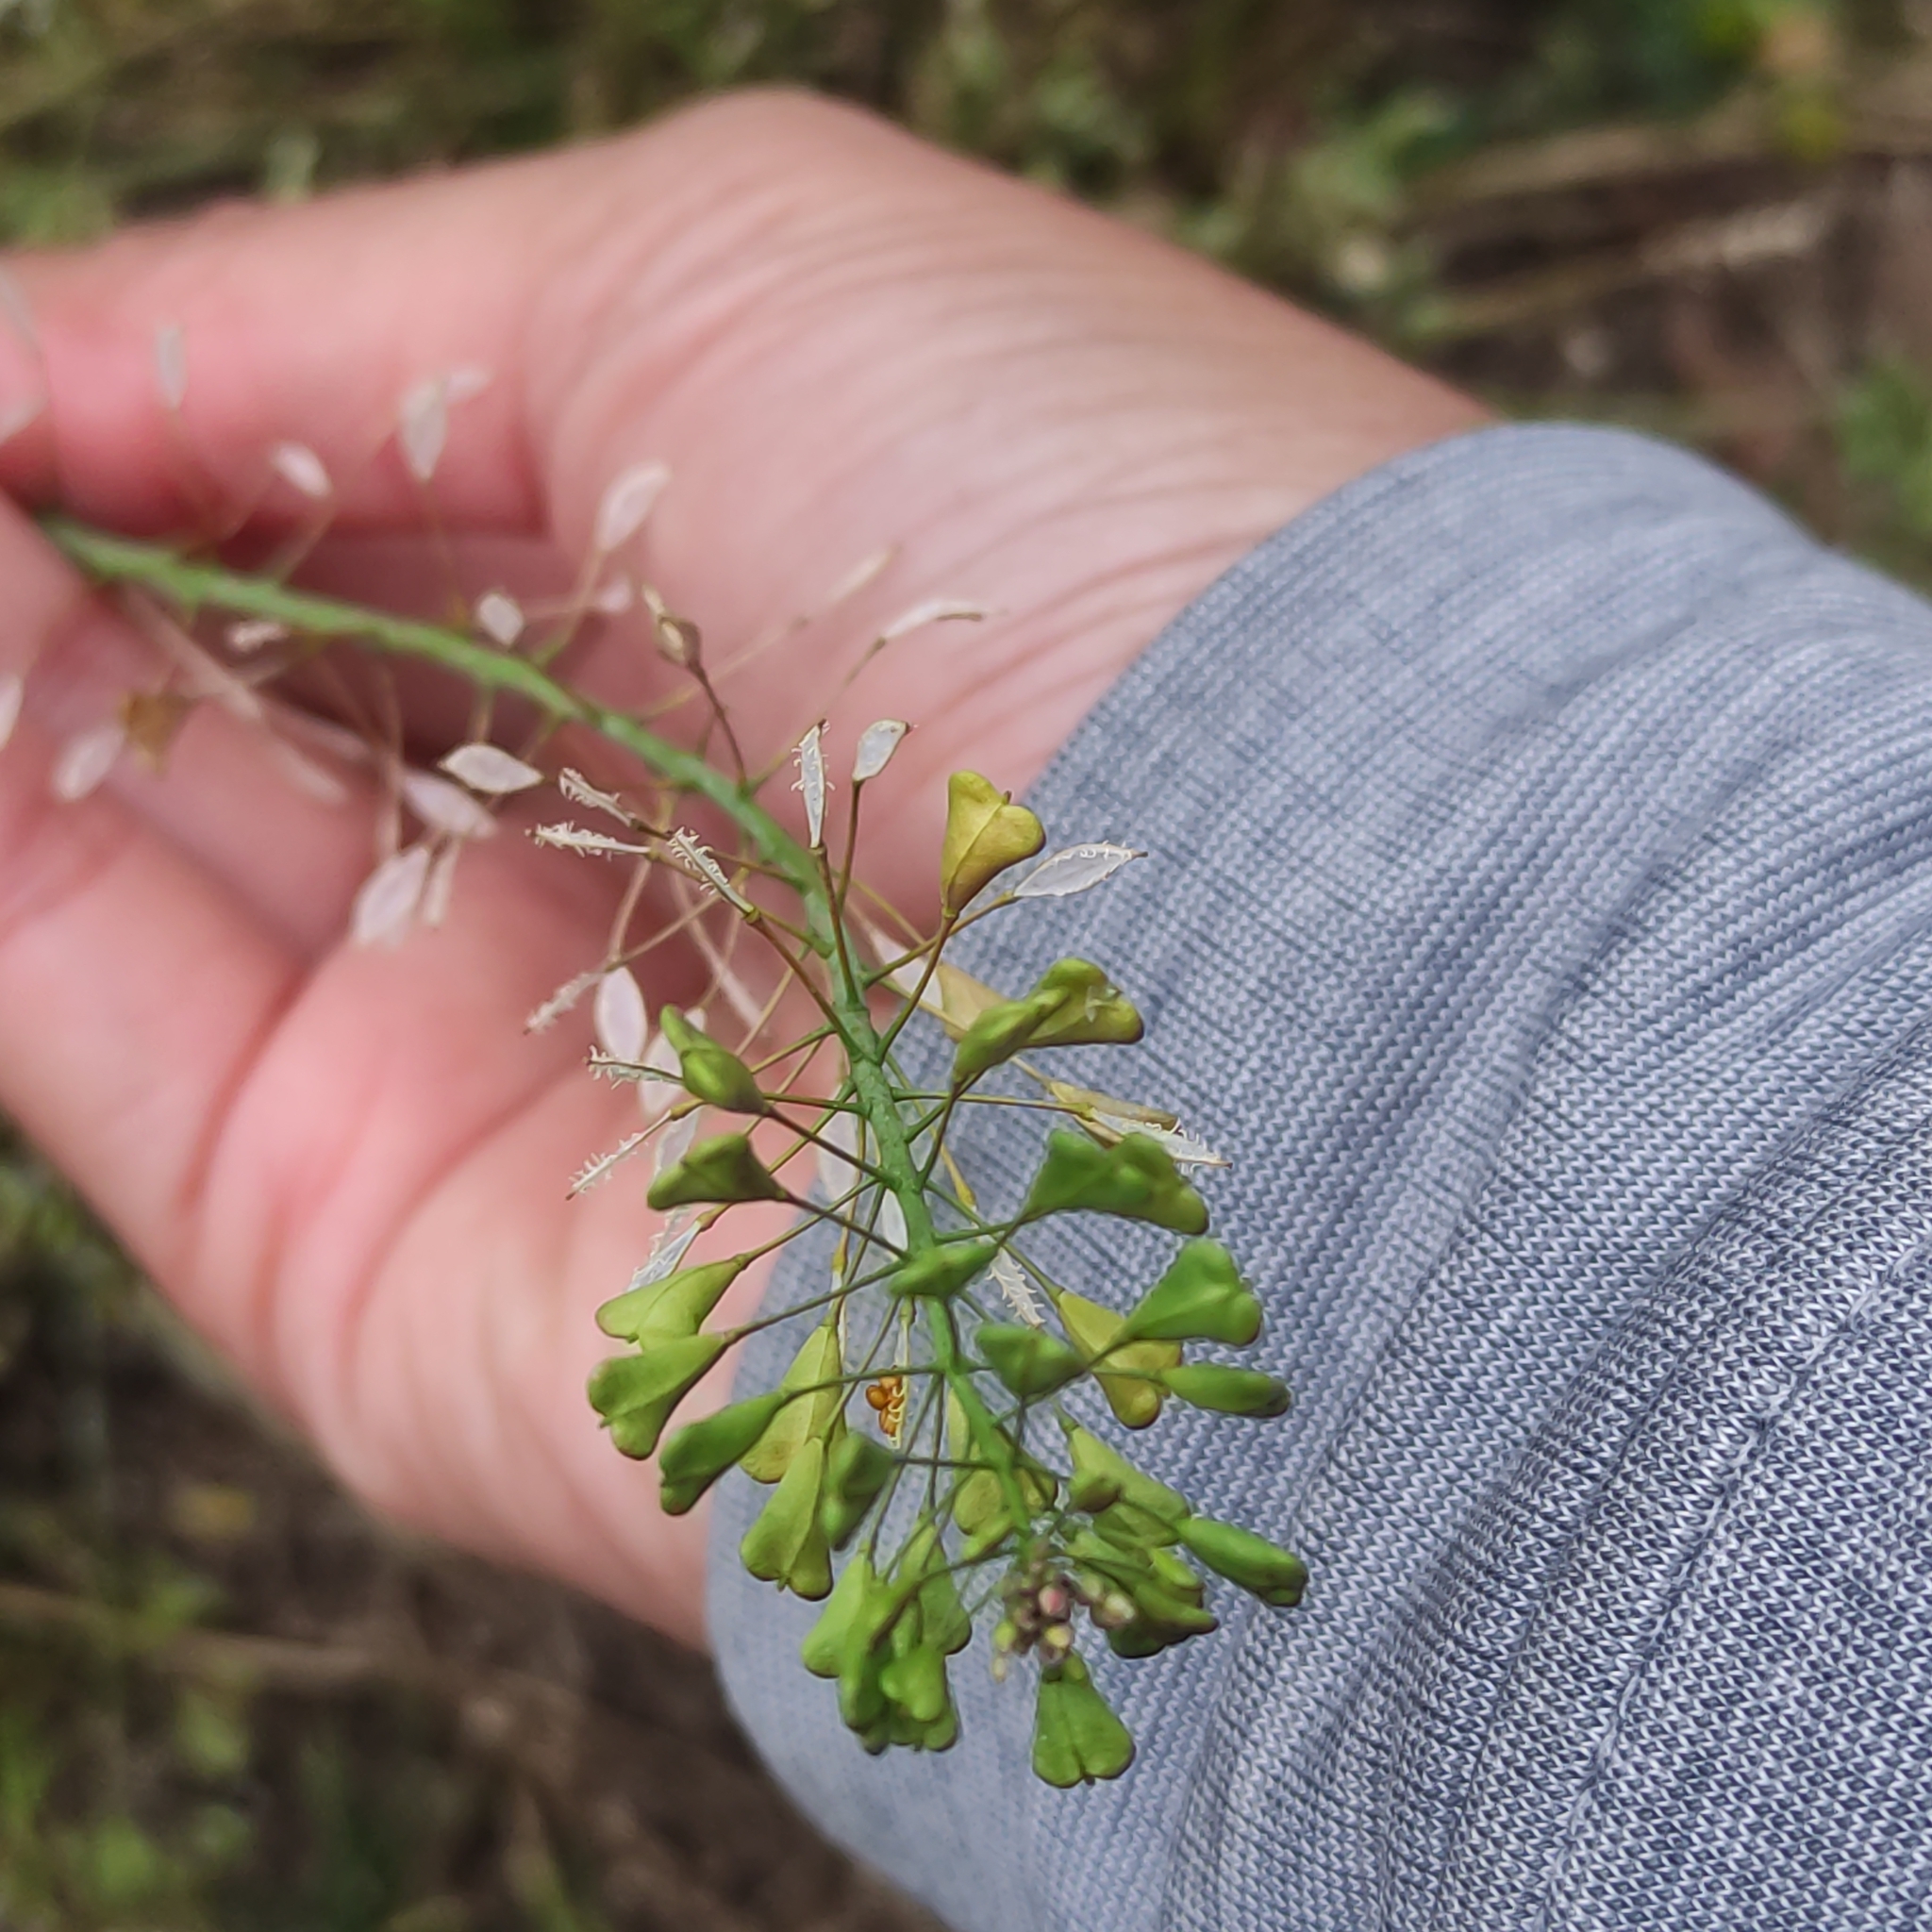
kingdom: Plantae
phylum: Tracheophyta
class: Magnoliopsida
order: Brassicales
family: Brassicaceae
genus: Capsella
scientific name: Capsella bursa-pastoris
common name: Shepherd's purse
